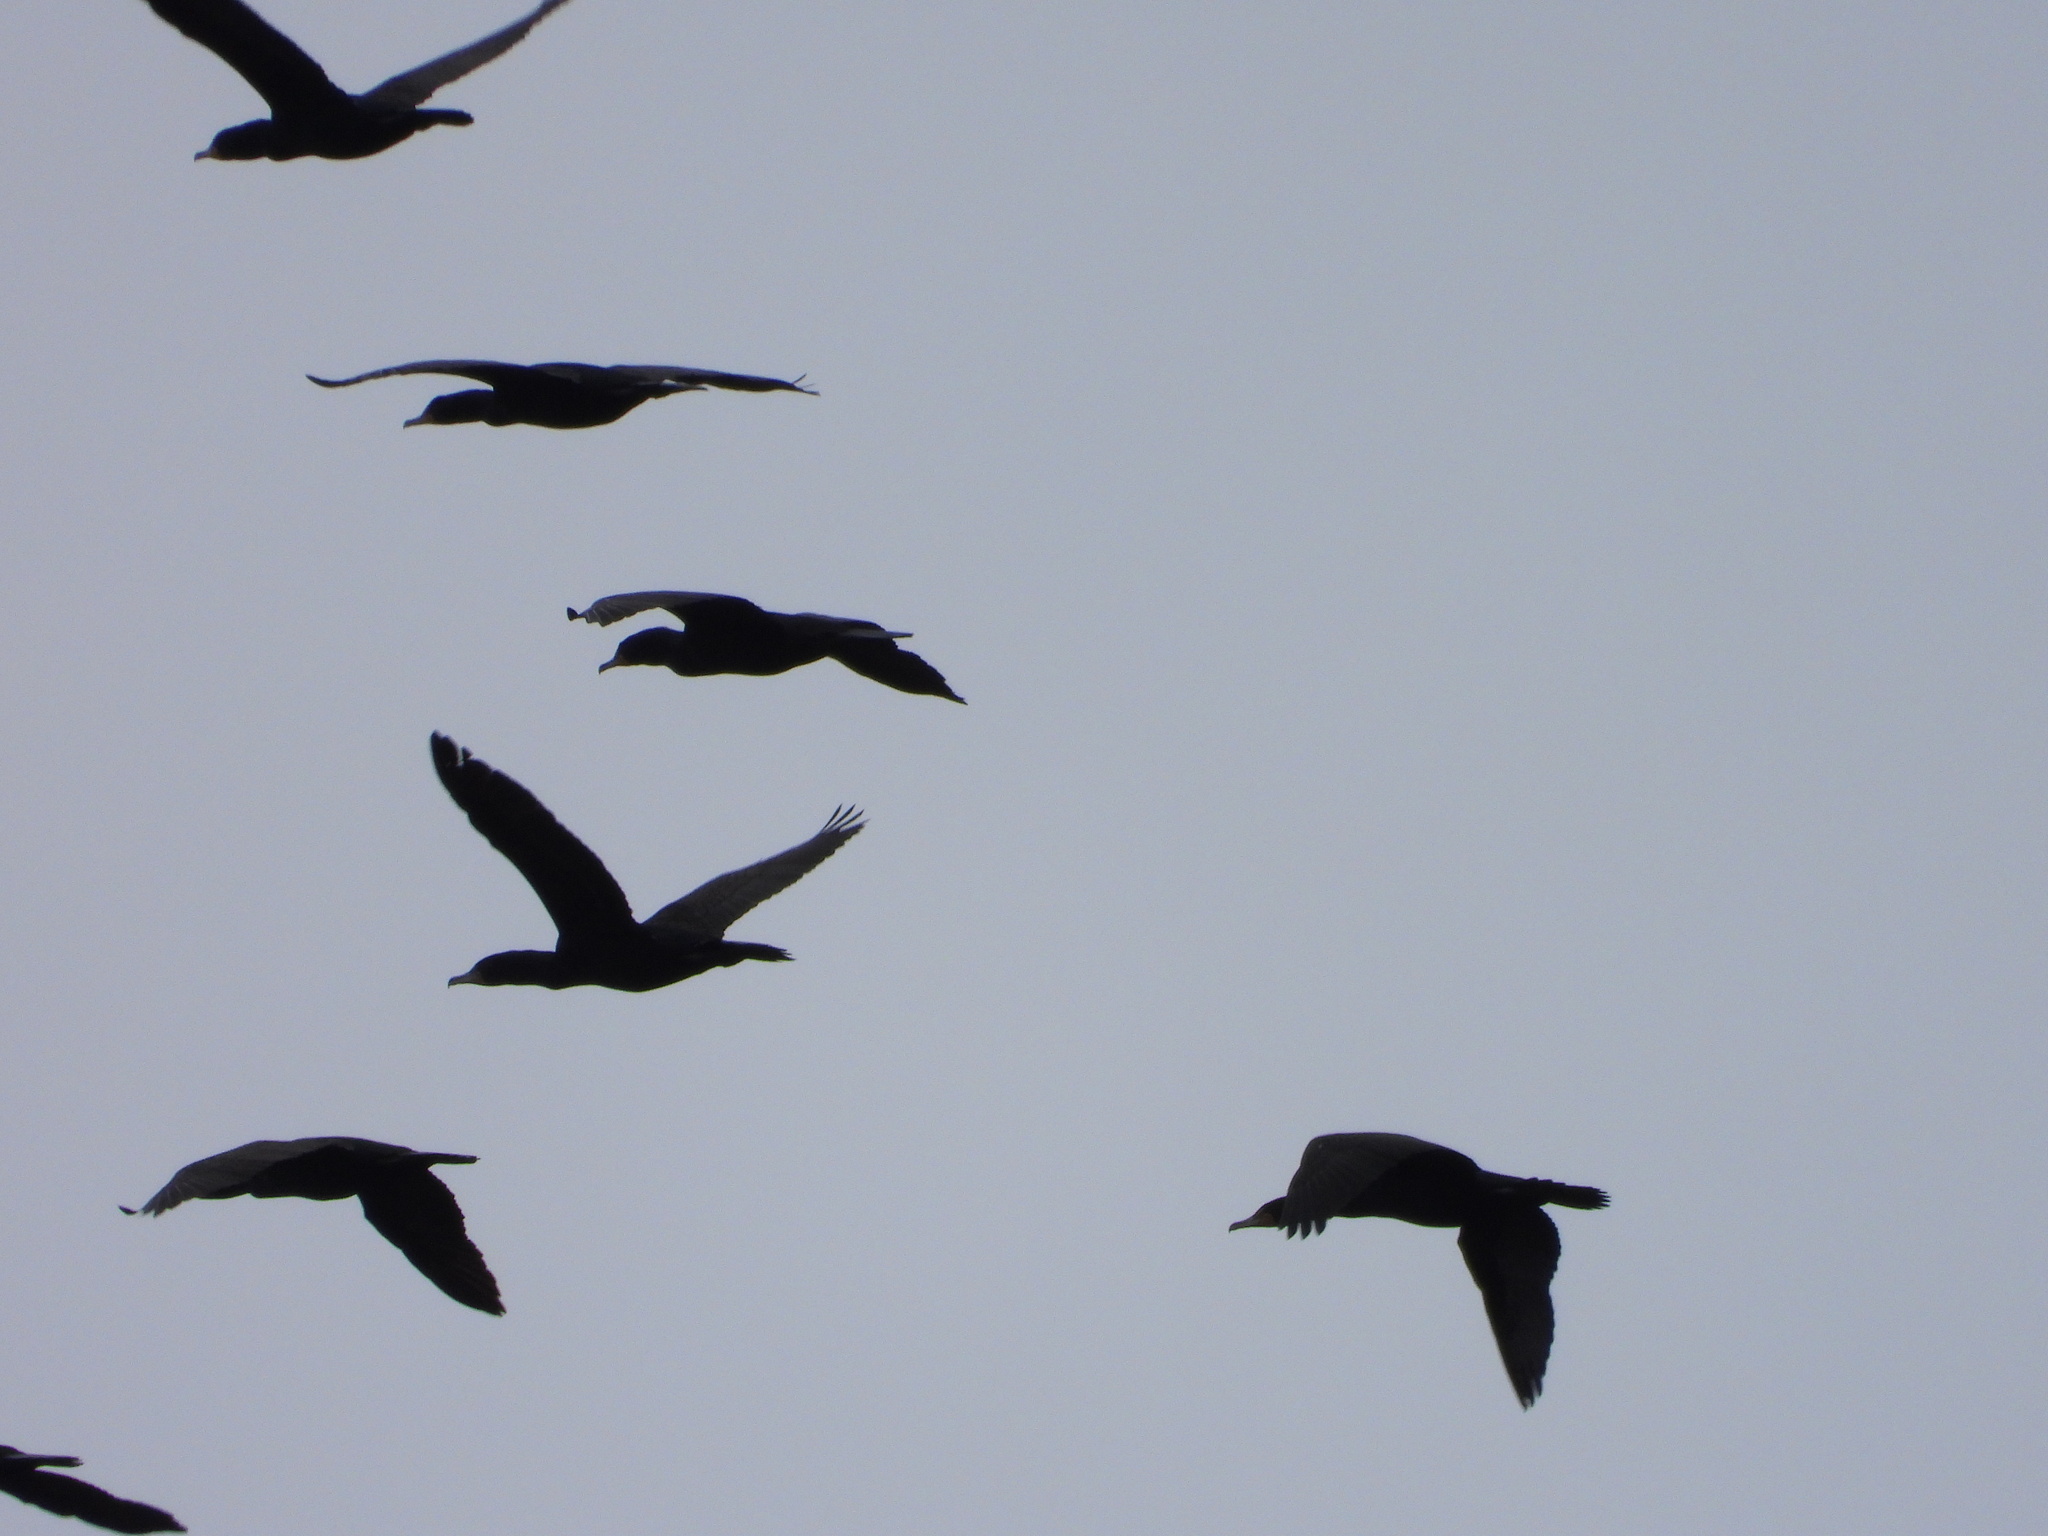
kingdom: Animalia
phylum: Chordata
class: Aves
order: Suliformes
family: Phalacrocoracidae
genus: Phalacrocorax
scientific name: Phalacrocorax auritus
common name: Double-crested cormorant
